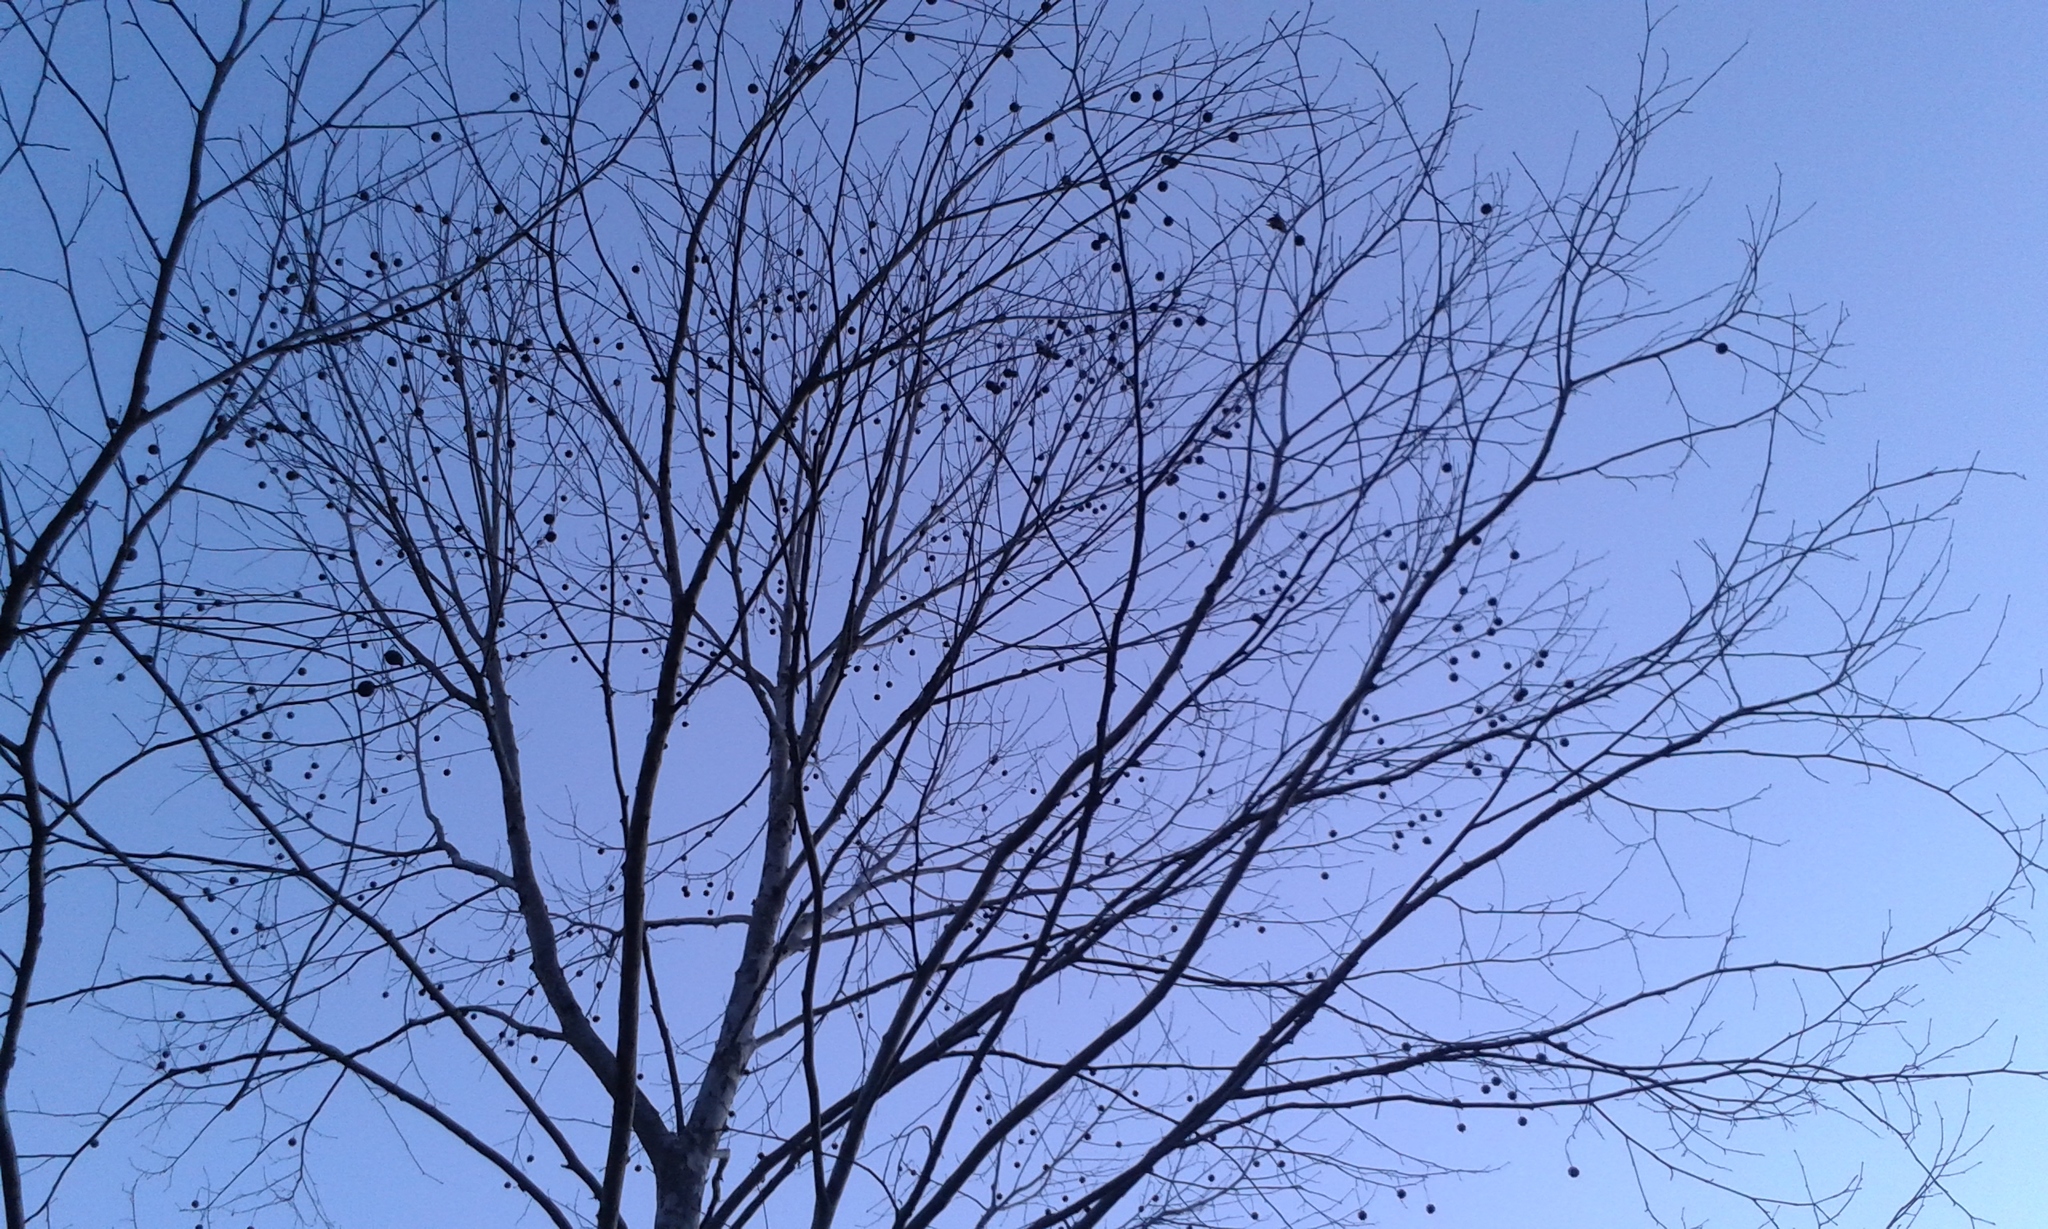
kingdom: Plantae
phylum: Tracheophyta
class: Magnoliopsida
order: Proteales
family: Platanaceae
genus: Platanus
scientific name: Platanus occidentalis
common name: American sycamore
